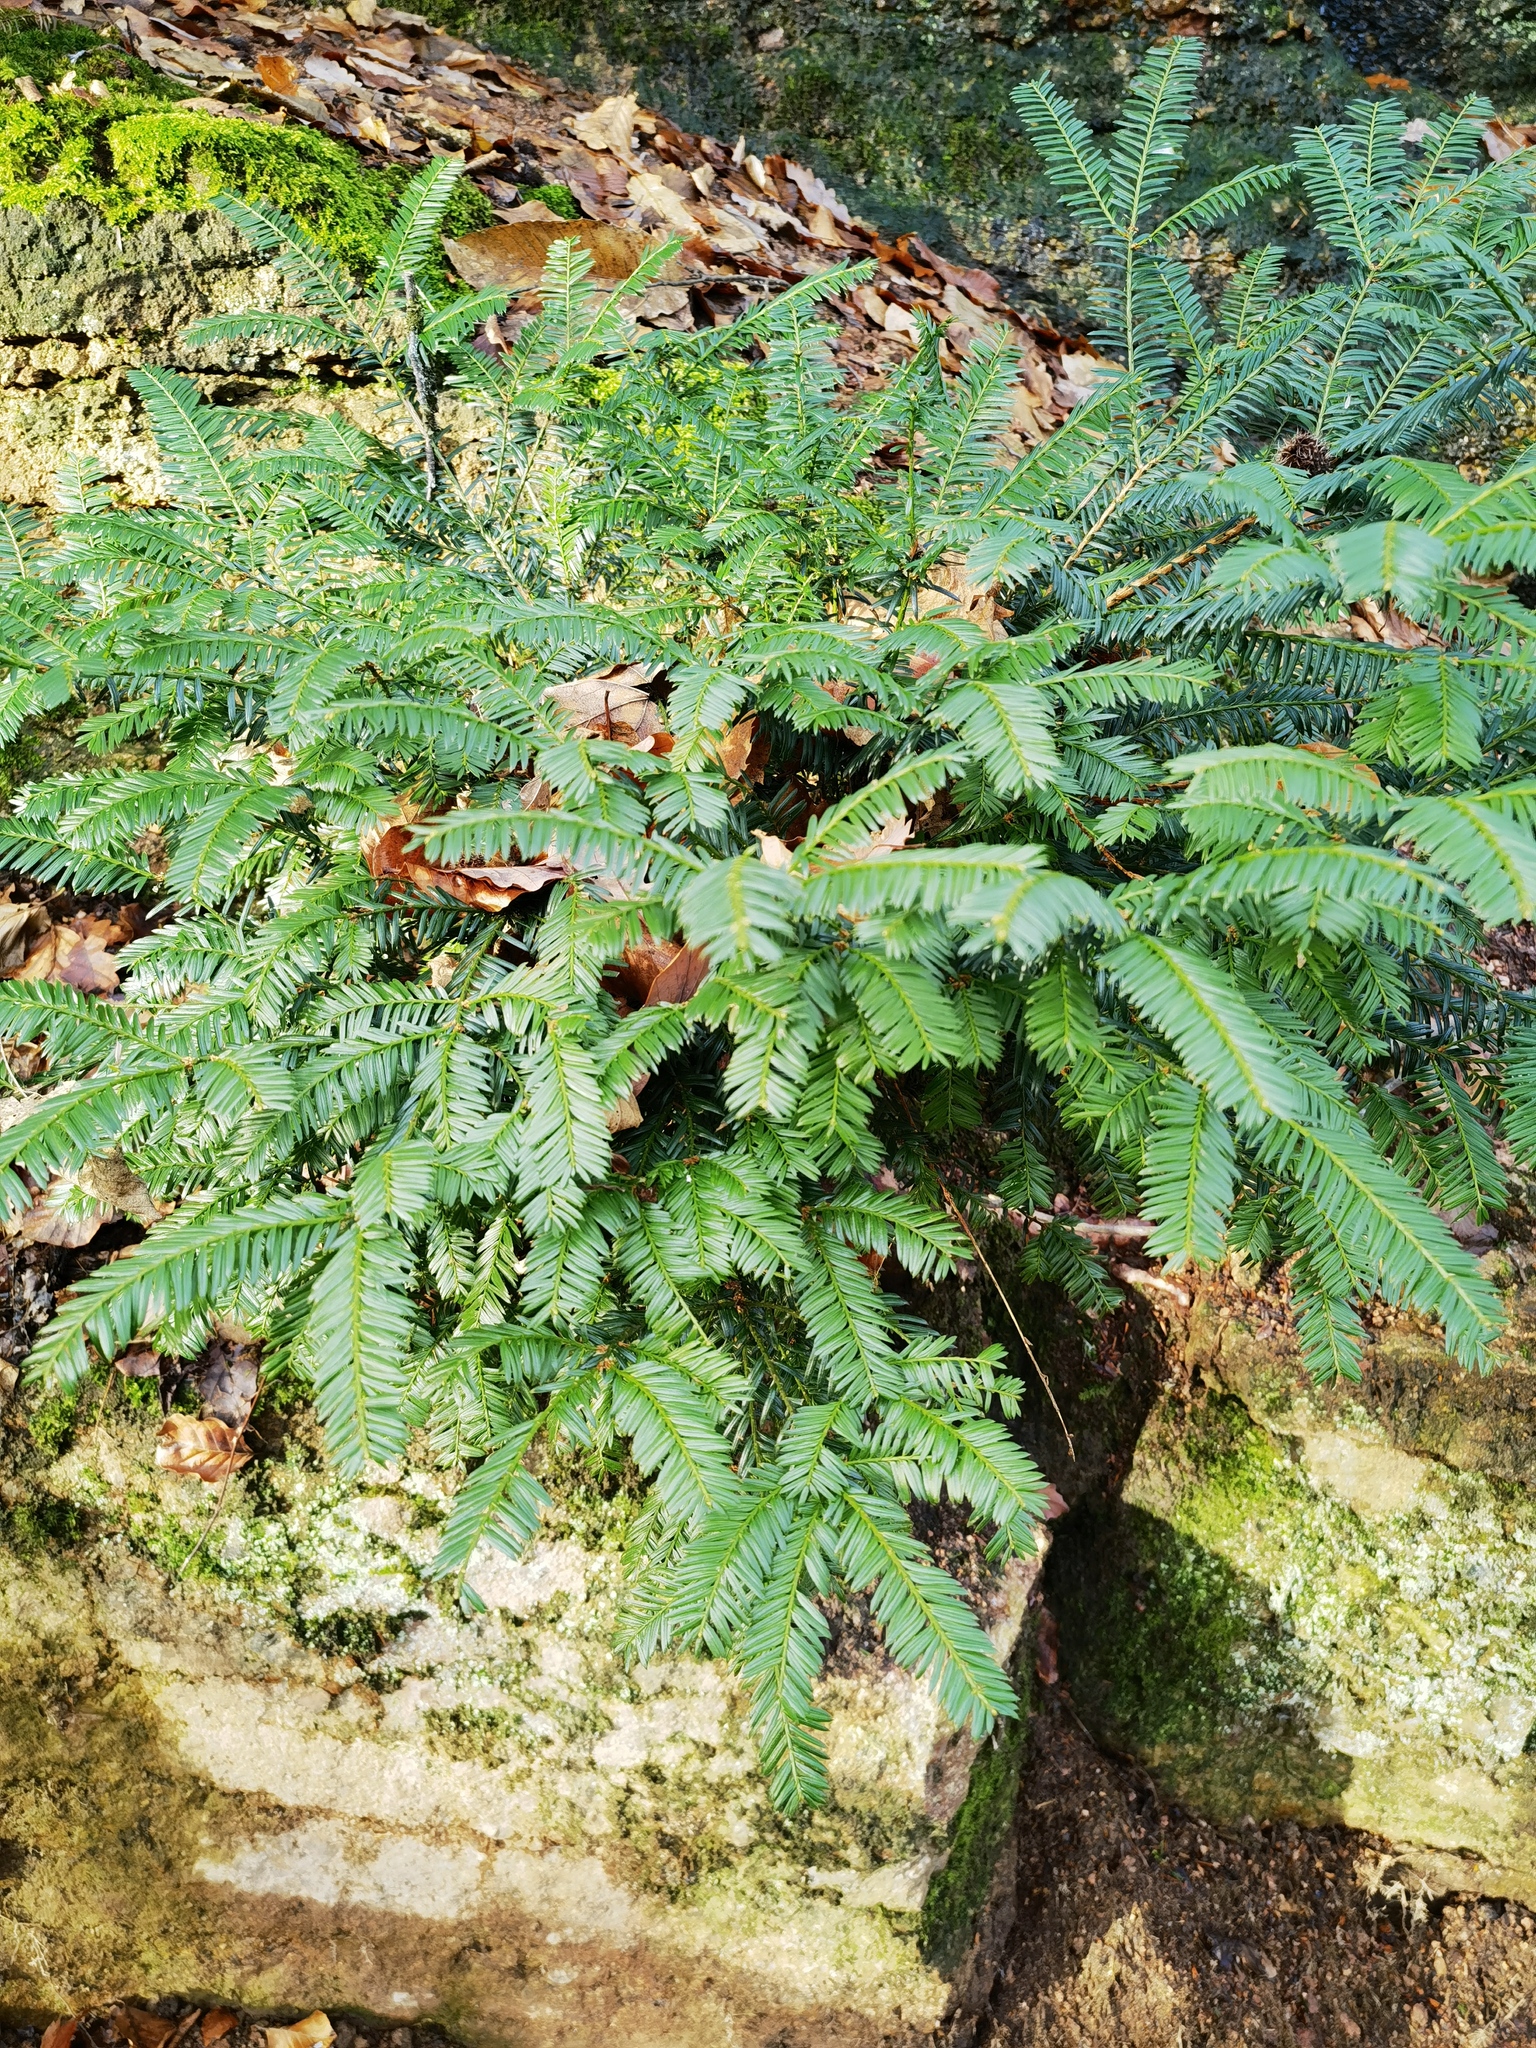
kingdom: Plantae
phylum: Tracheophyta
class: Pinopsida
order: Pinales
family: Taxaceae
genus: Taxus
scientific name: Taxus baccata
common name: Yew
